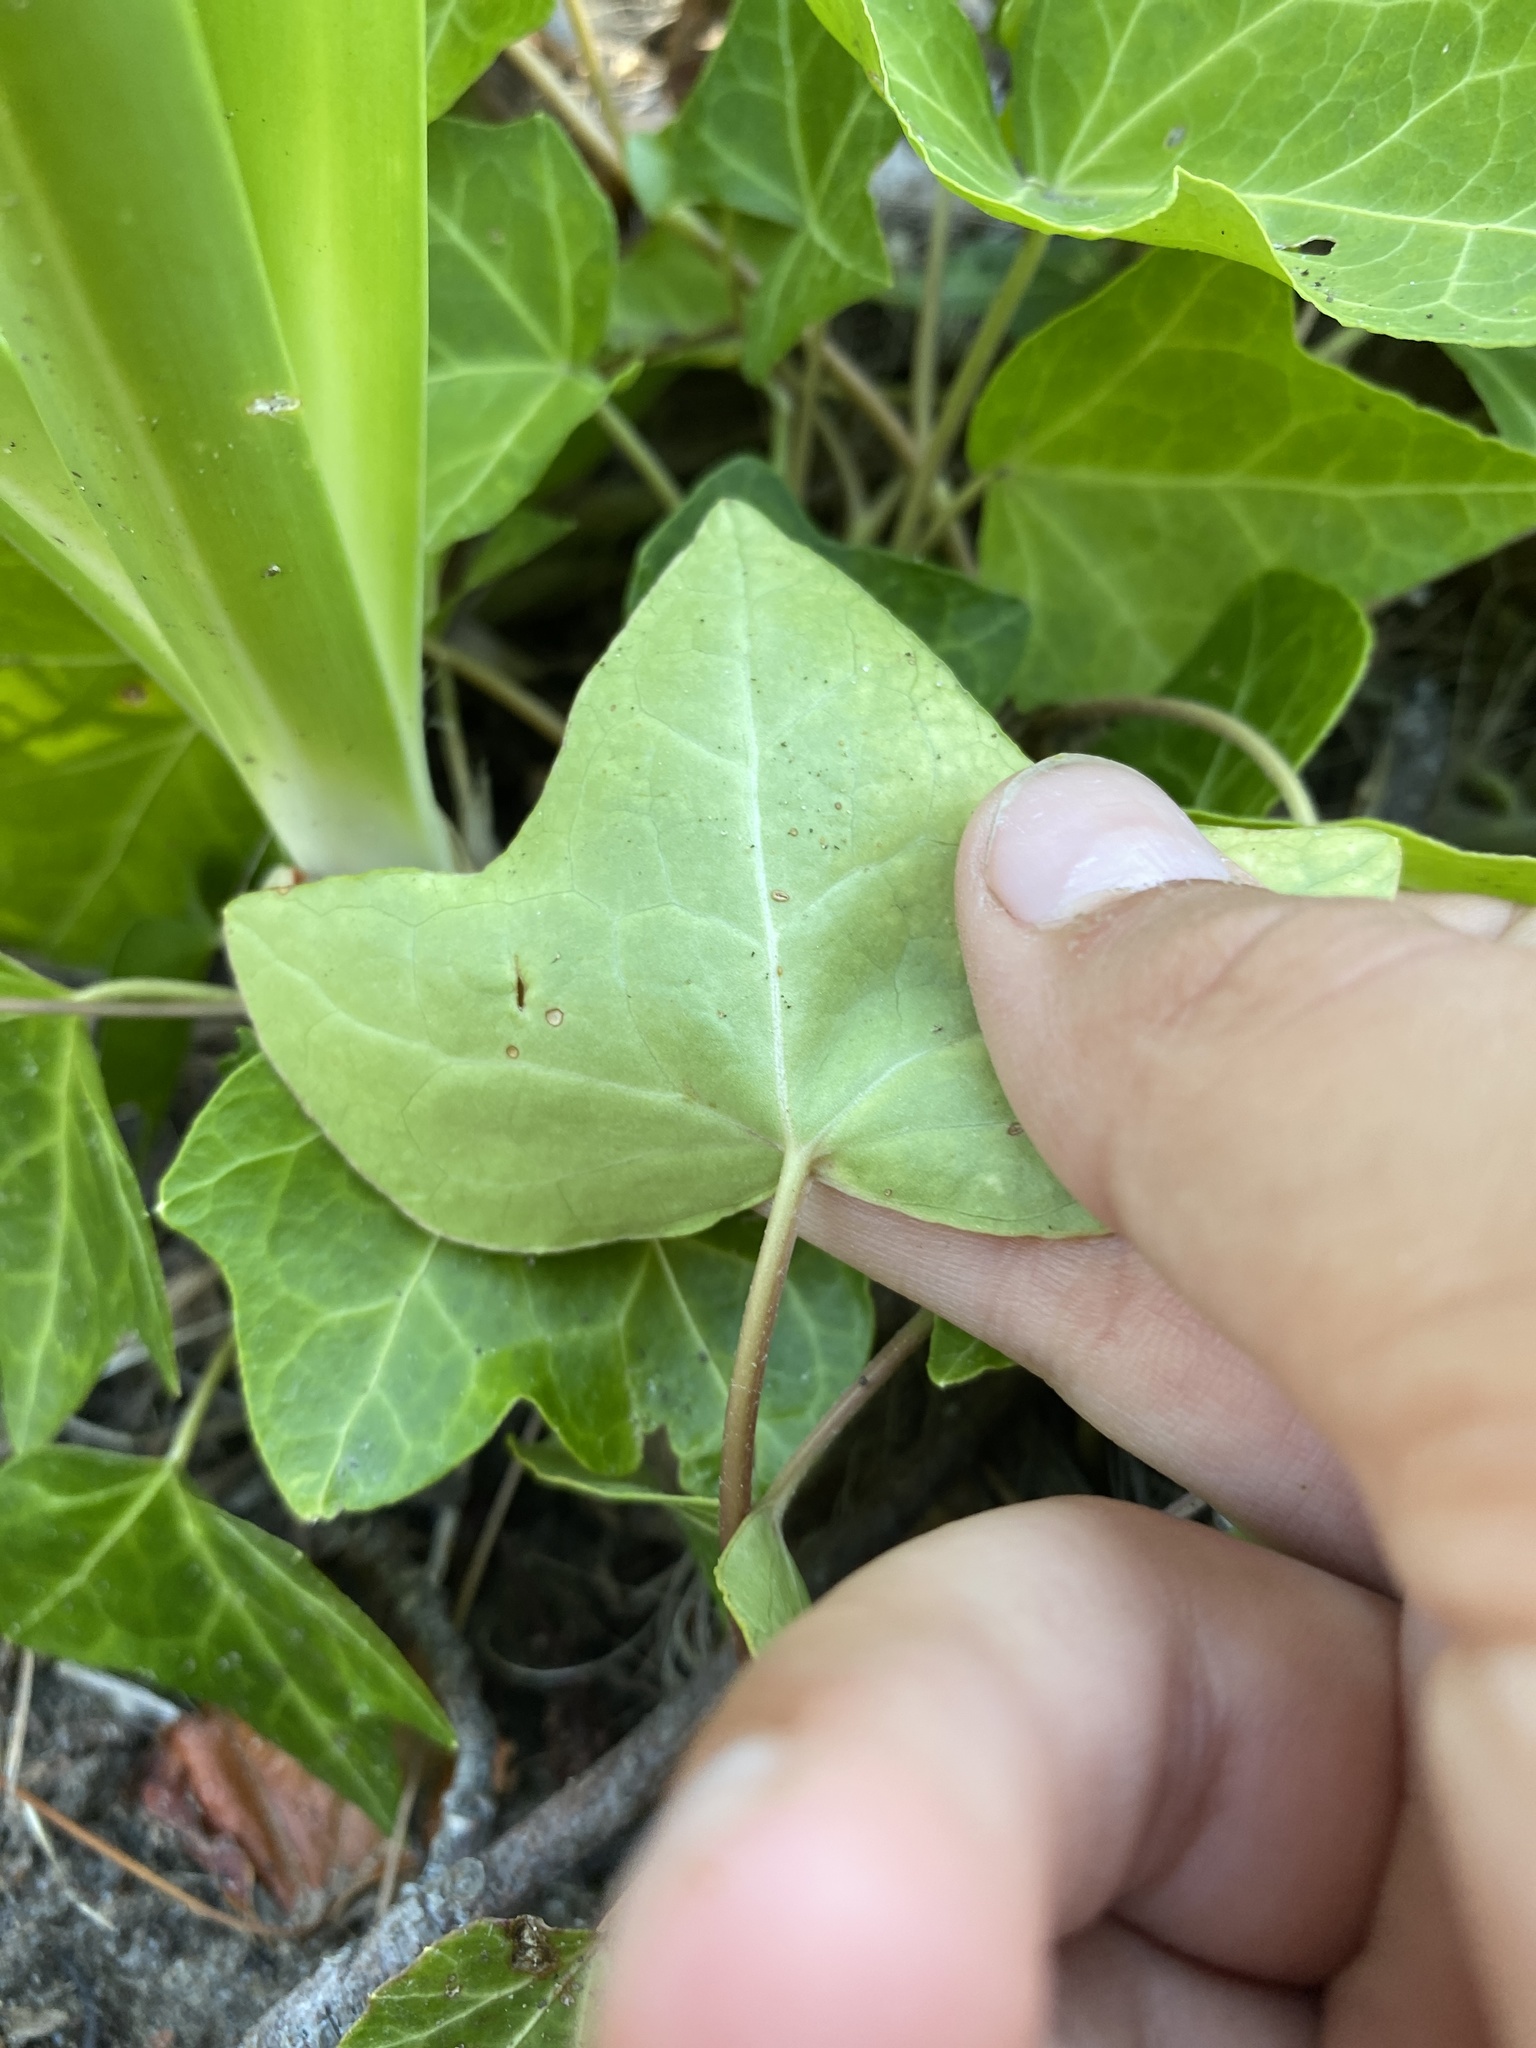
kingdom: Plantae
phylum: Tracheophyta
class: Magnoliopsida
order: Apiales
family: Araliaceae
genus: Hedera
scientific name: Hedera helix
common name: Ivy
